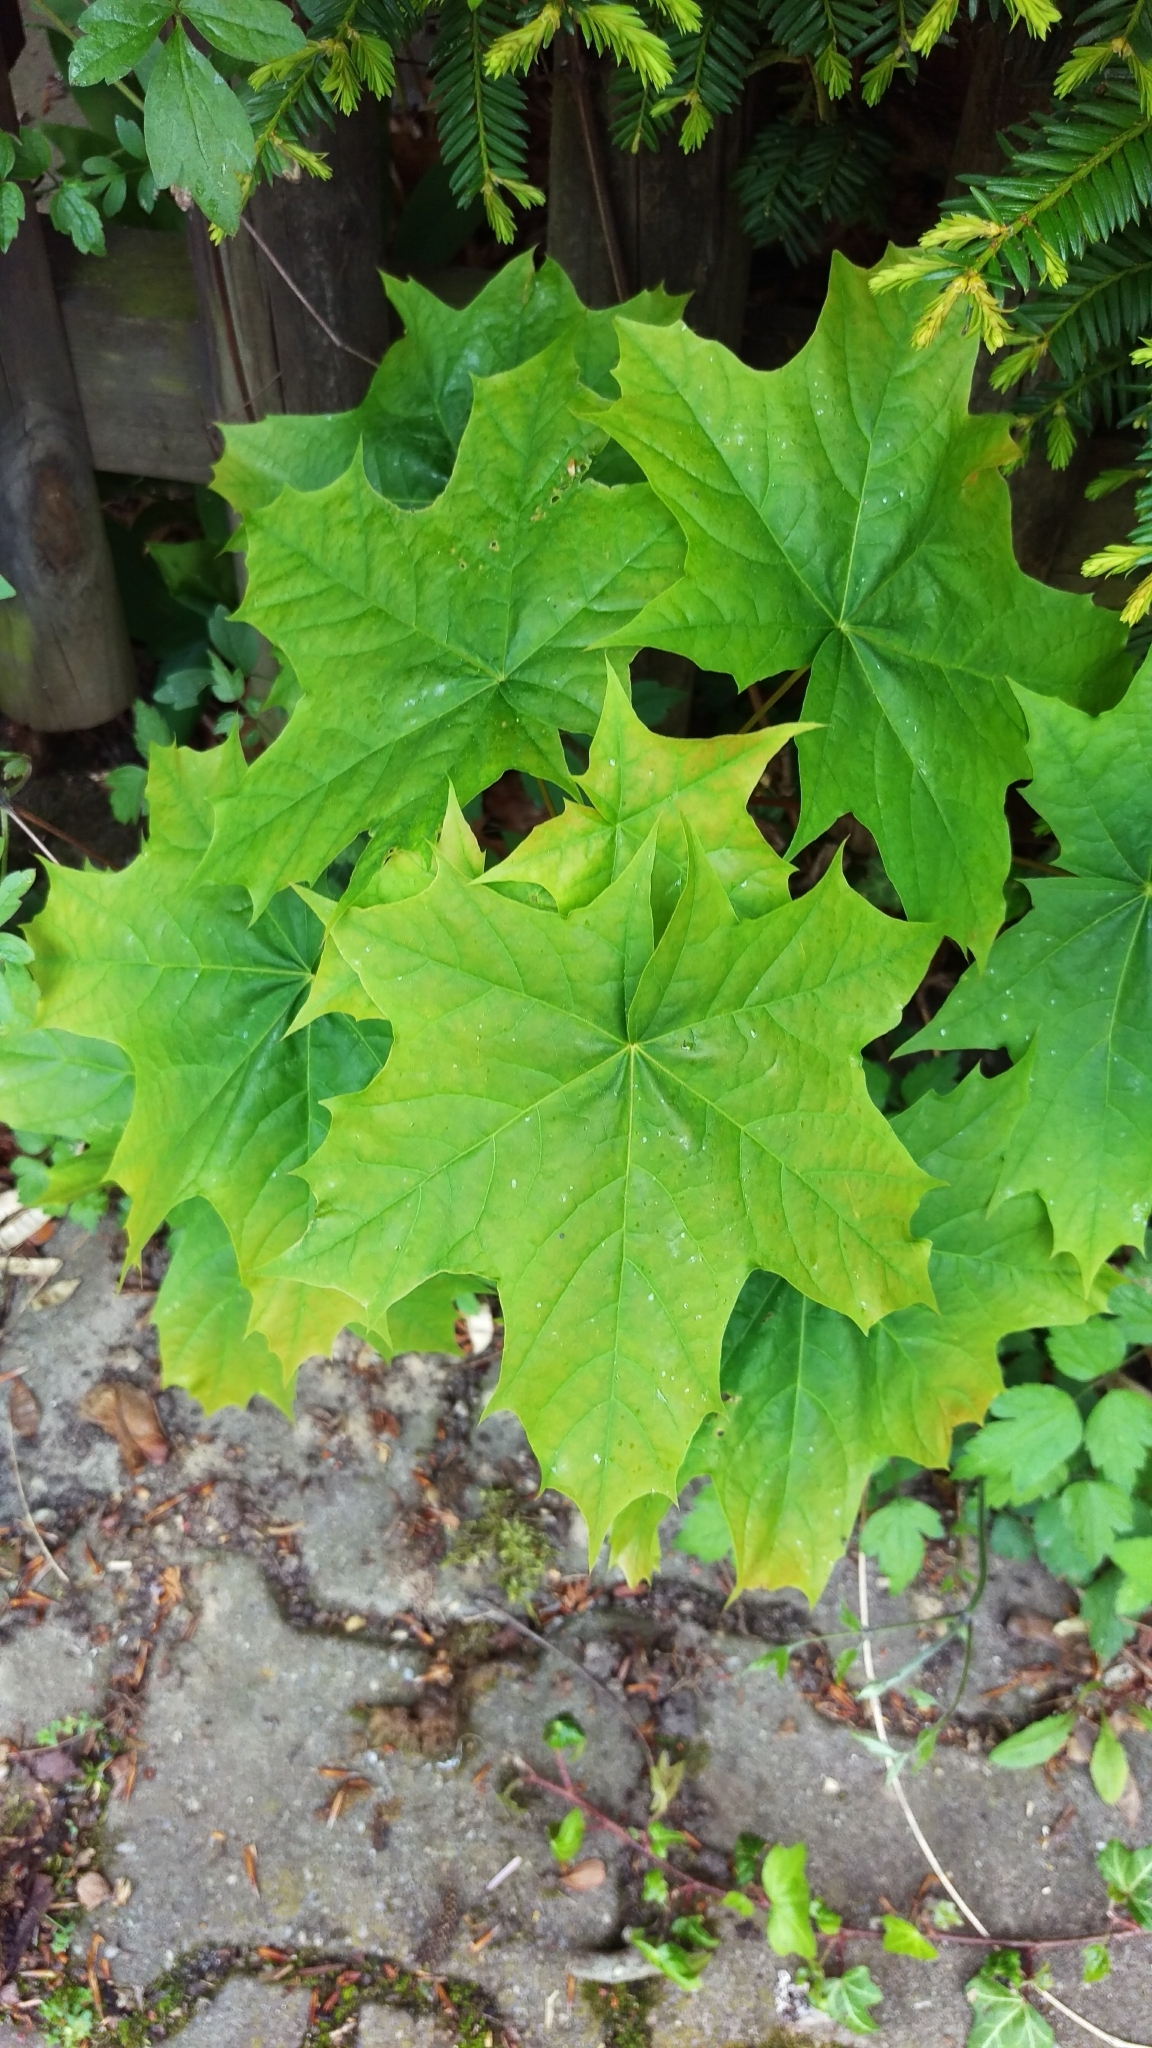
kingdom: Plantae
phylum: Tracheophyta
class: Magnoliopsida
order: Sapindales
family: Sapindaceae
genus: Acer
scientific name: Acer platanoides
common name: Norway maple
